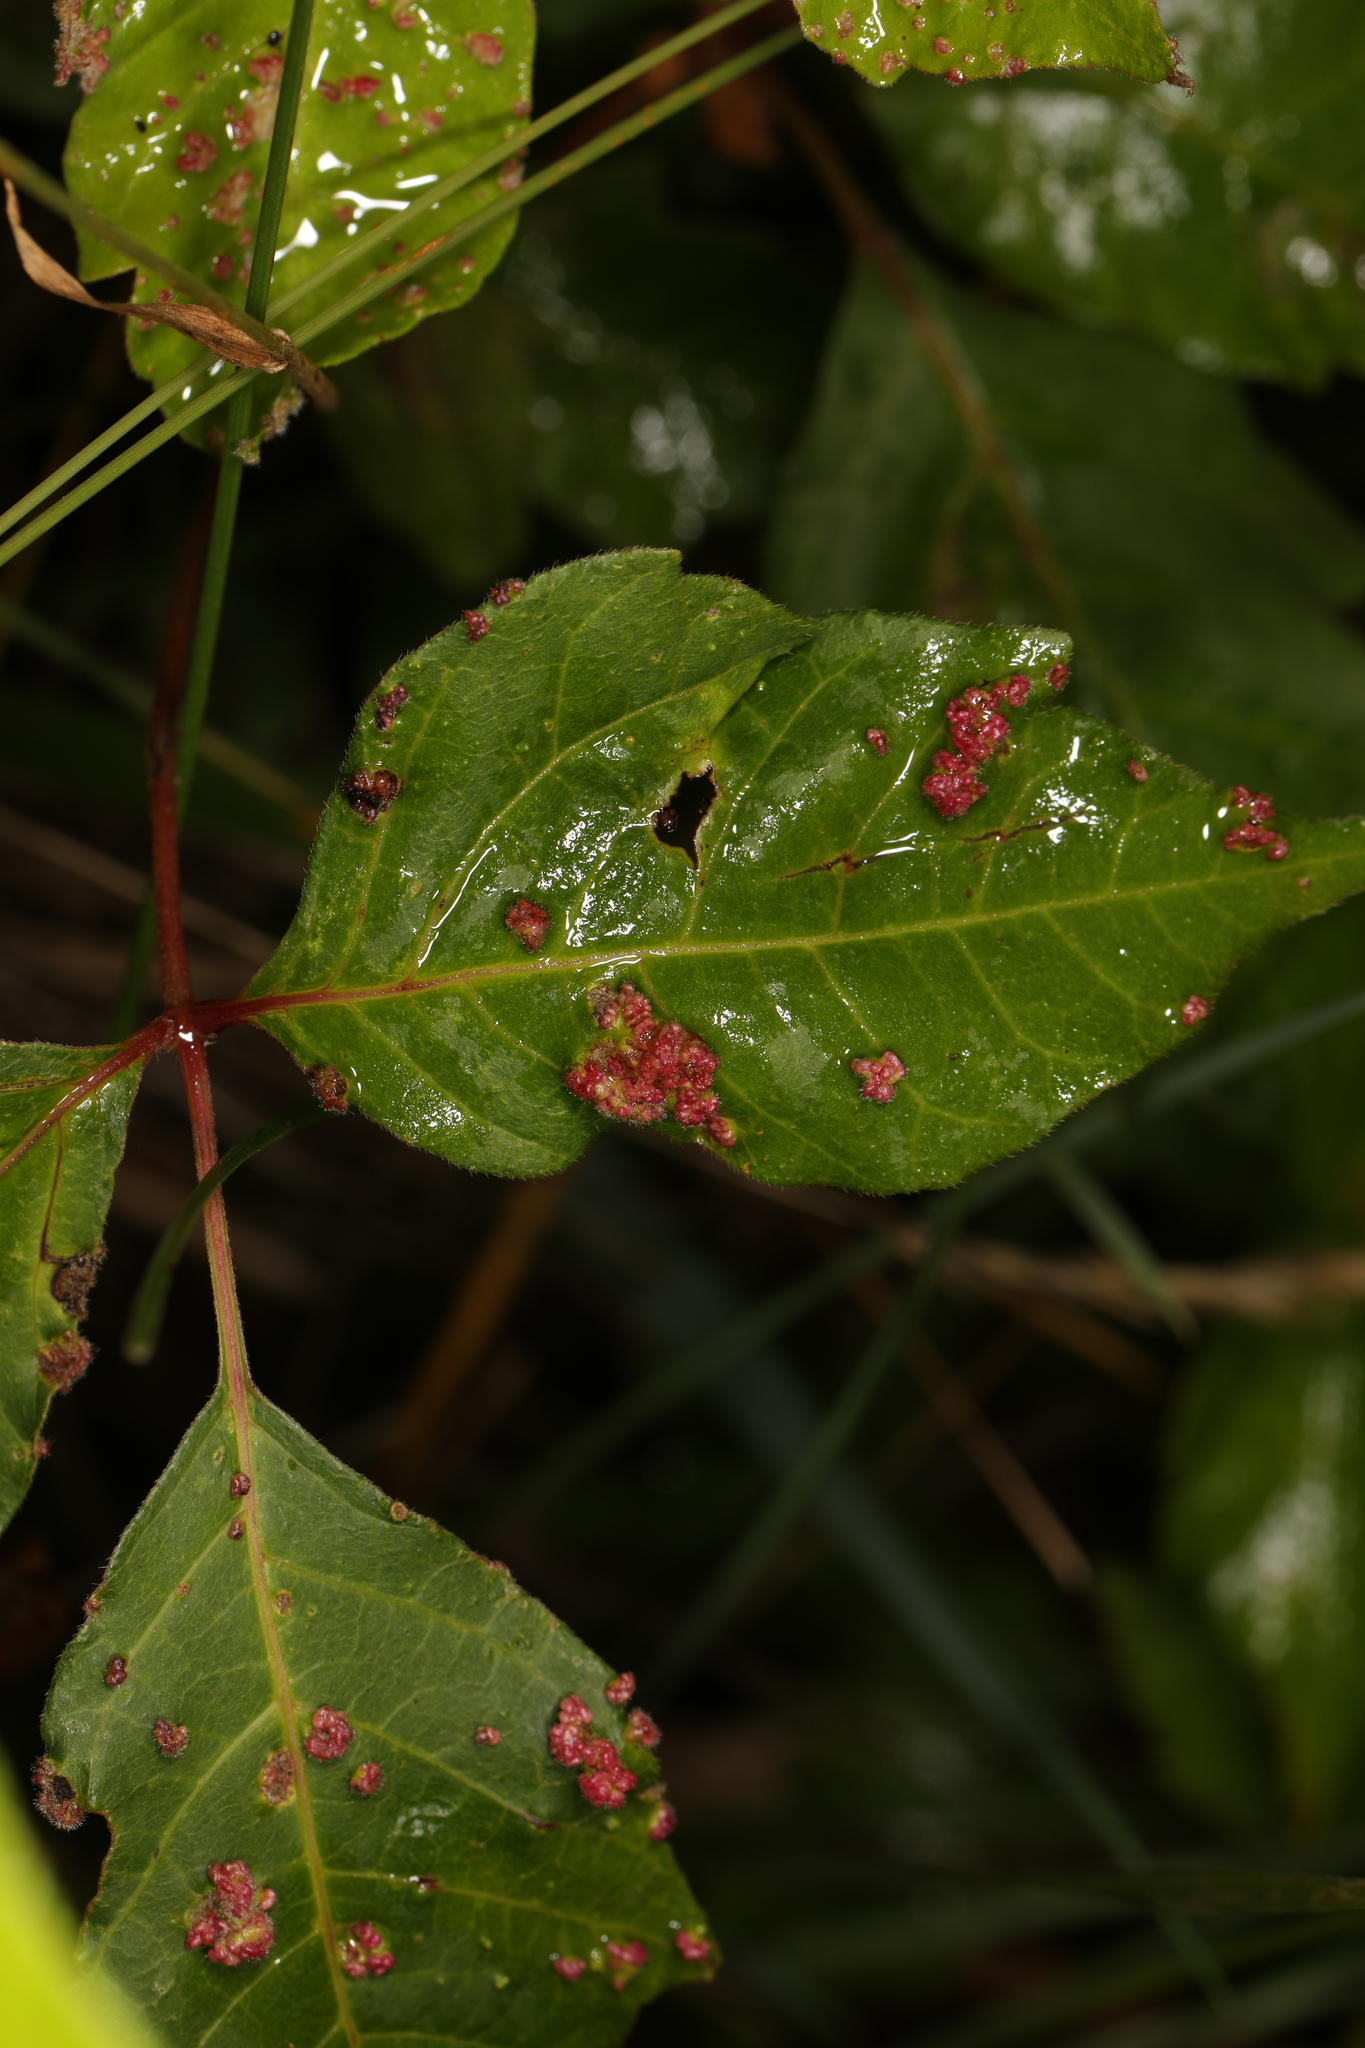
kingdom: Animalia
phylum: Arthropoda
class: Arachnida
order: Trombidiformes
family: Eriophyidae
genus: Aculops
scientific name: Aculops
